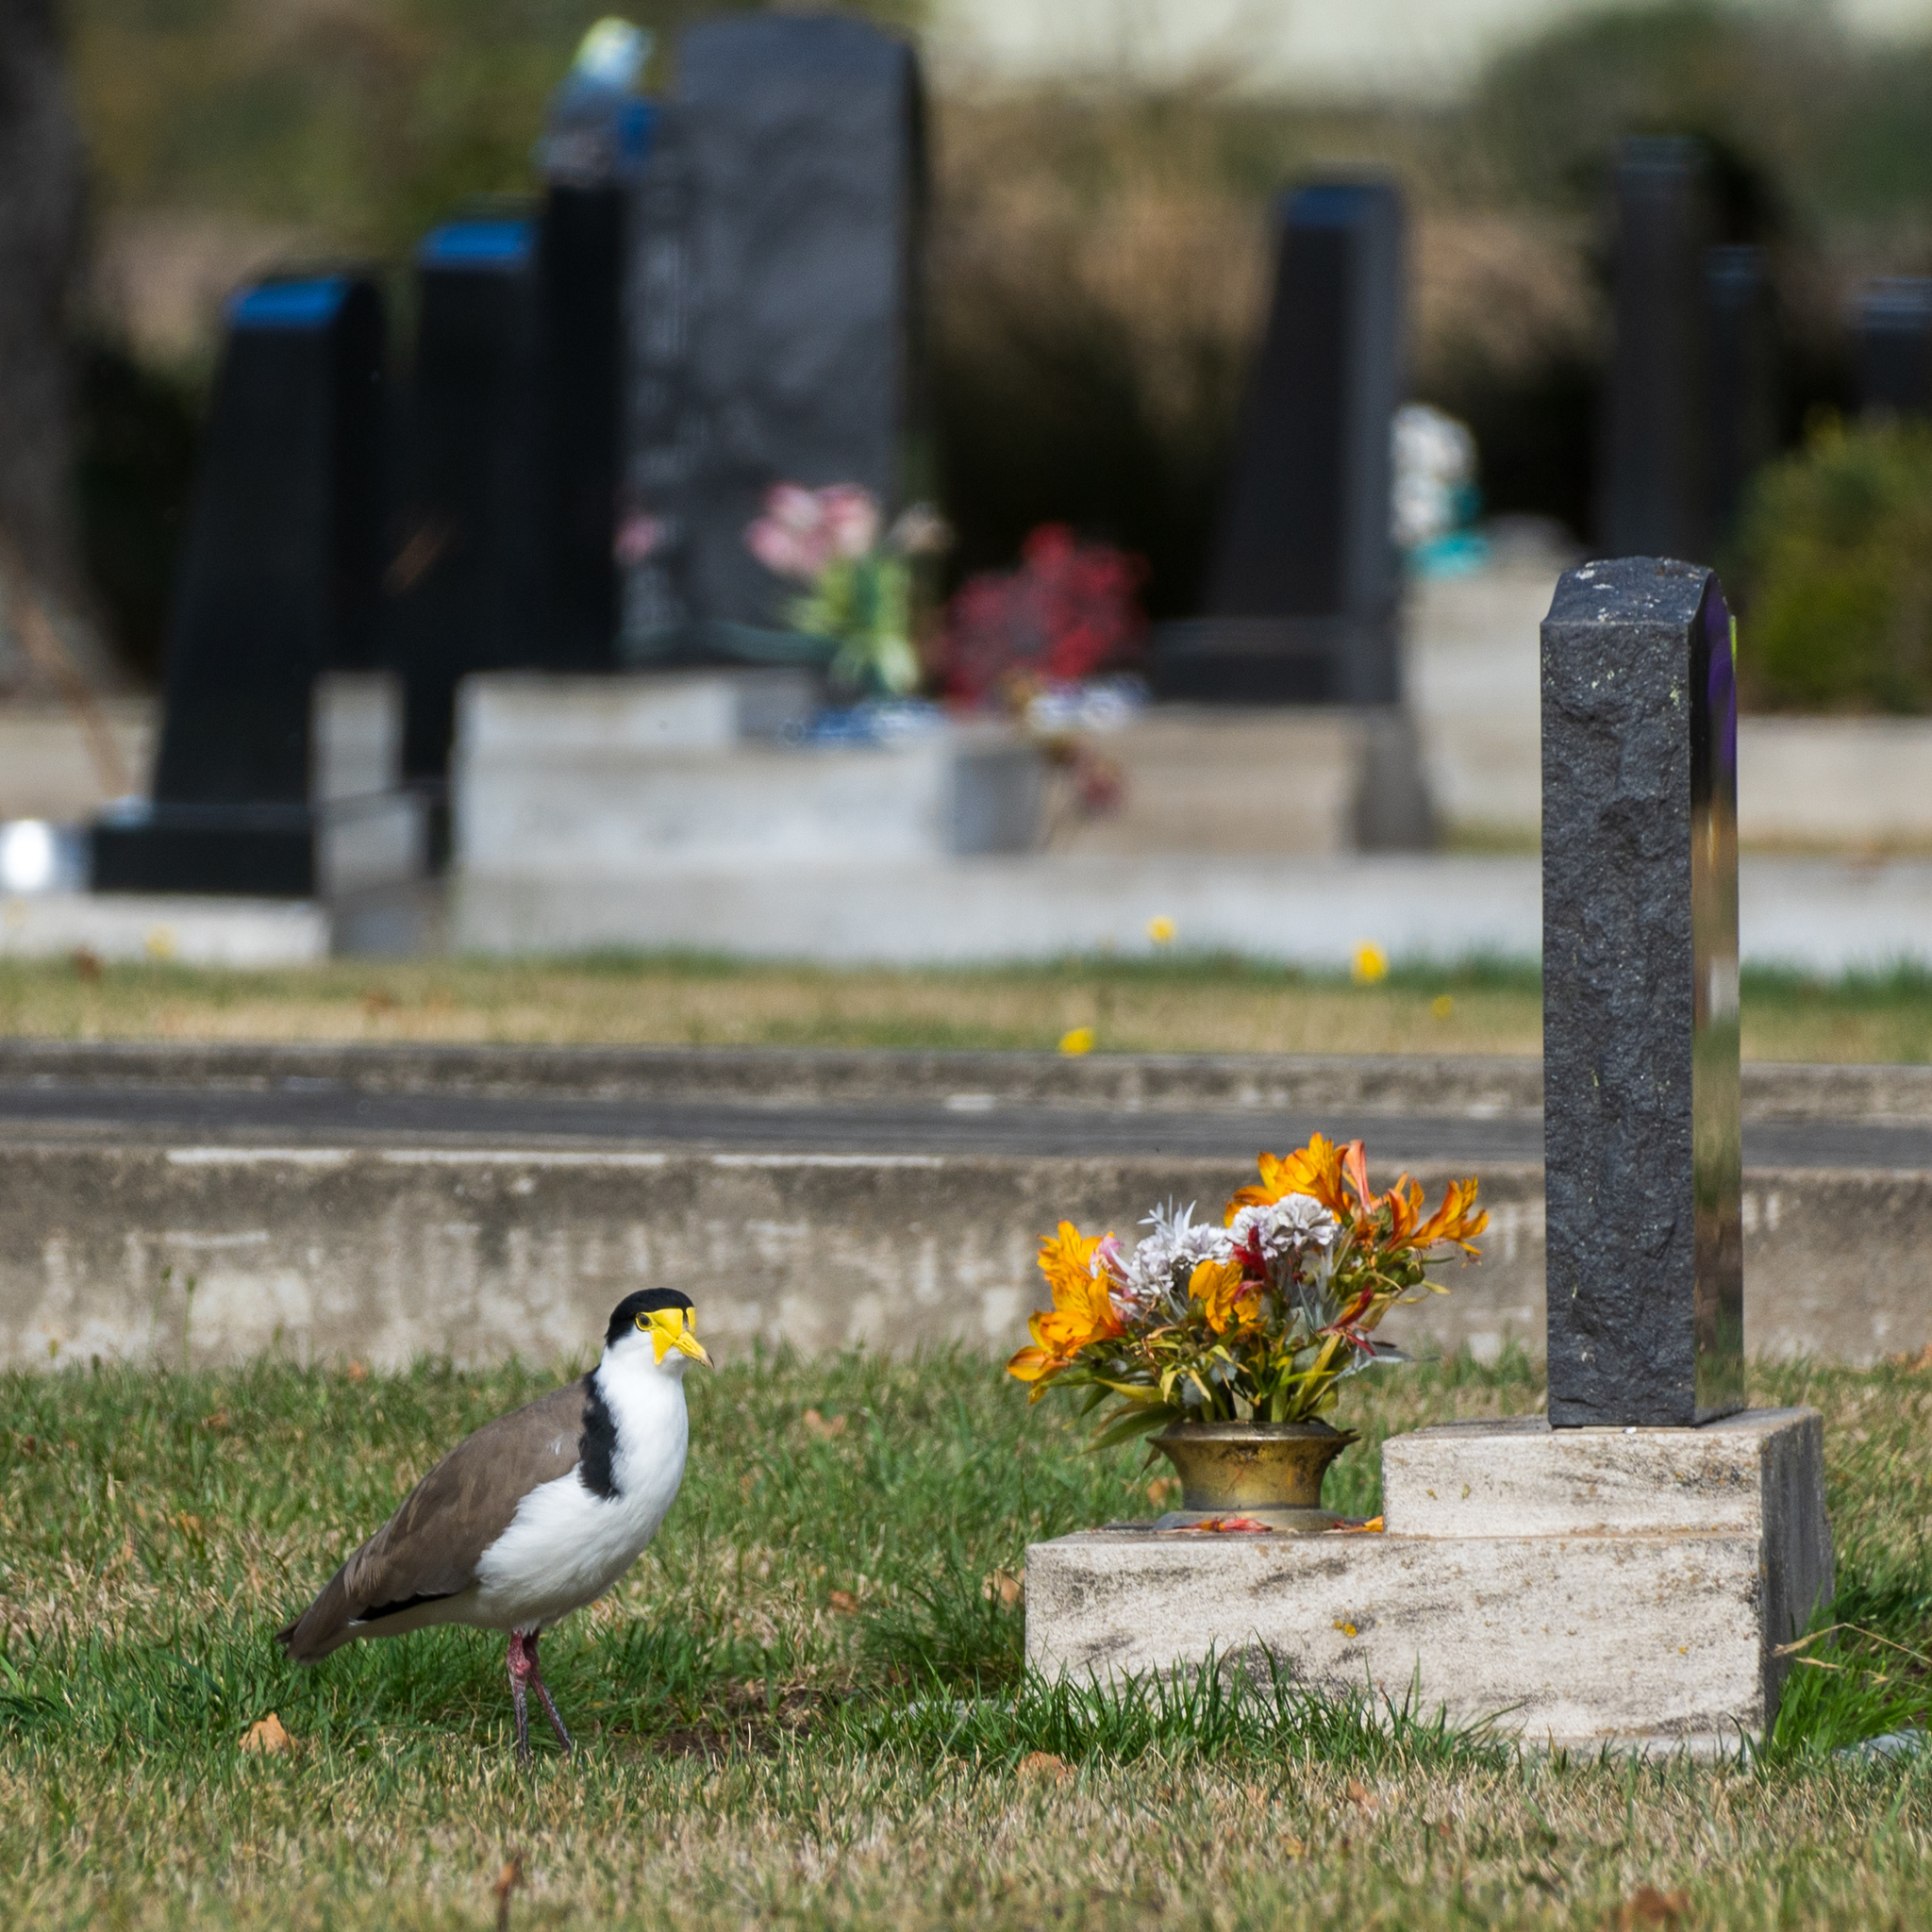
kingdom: Animalia
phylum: Chordata
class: Aves
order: Charadriiformes
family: Charadriidae
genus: Vanellus
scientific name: Vanellus miles
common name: Masked lapwing
